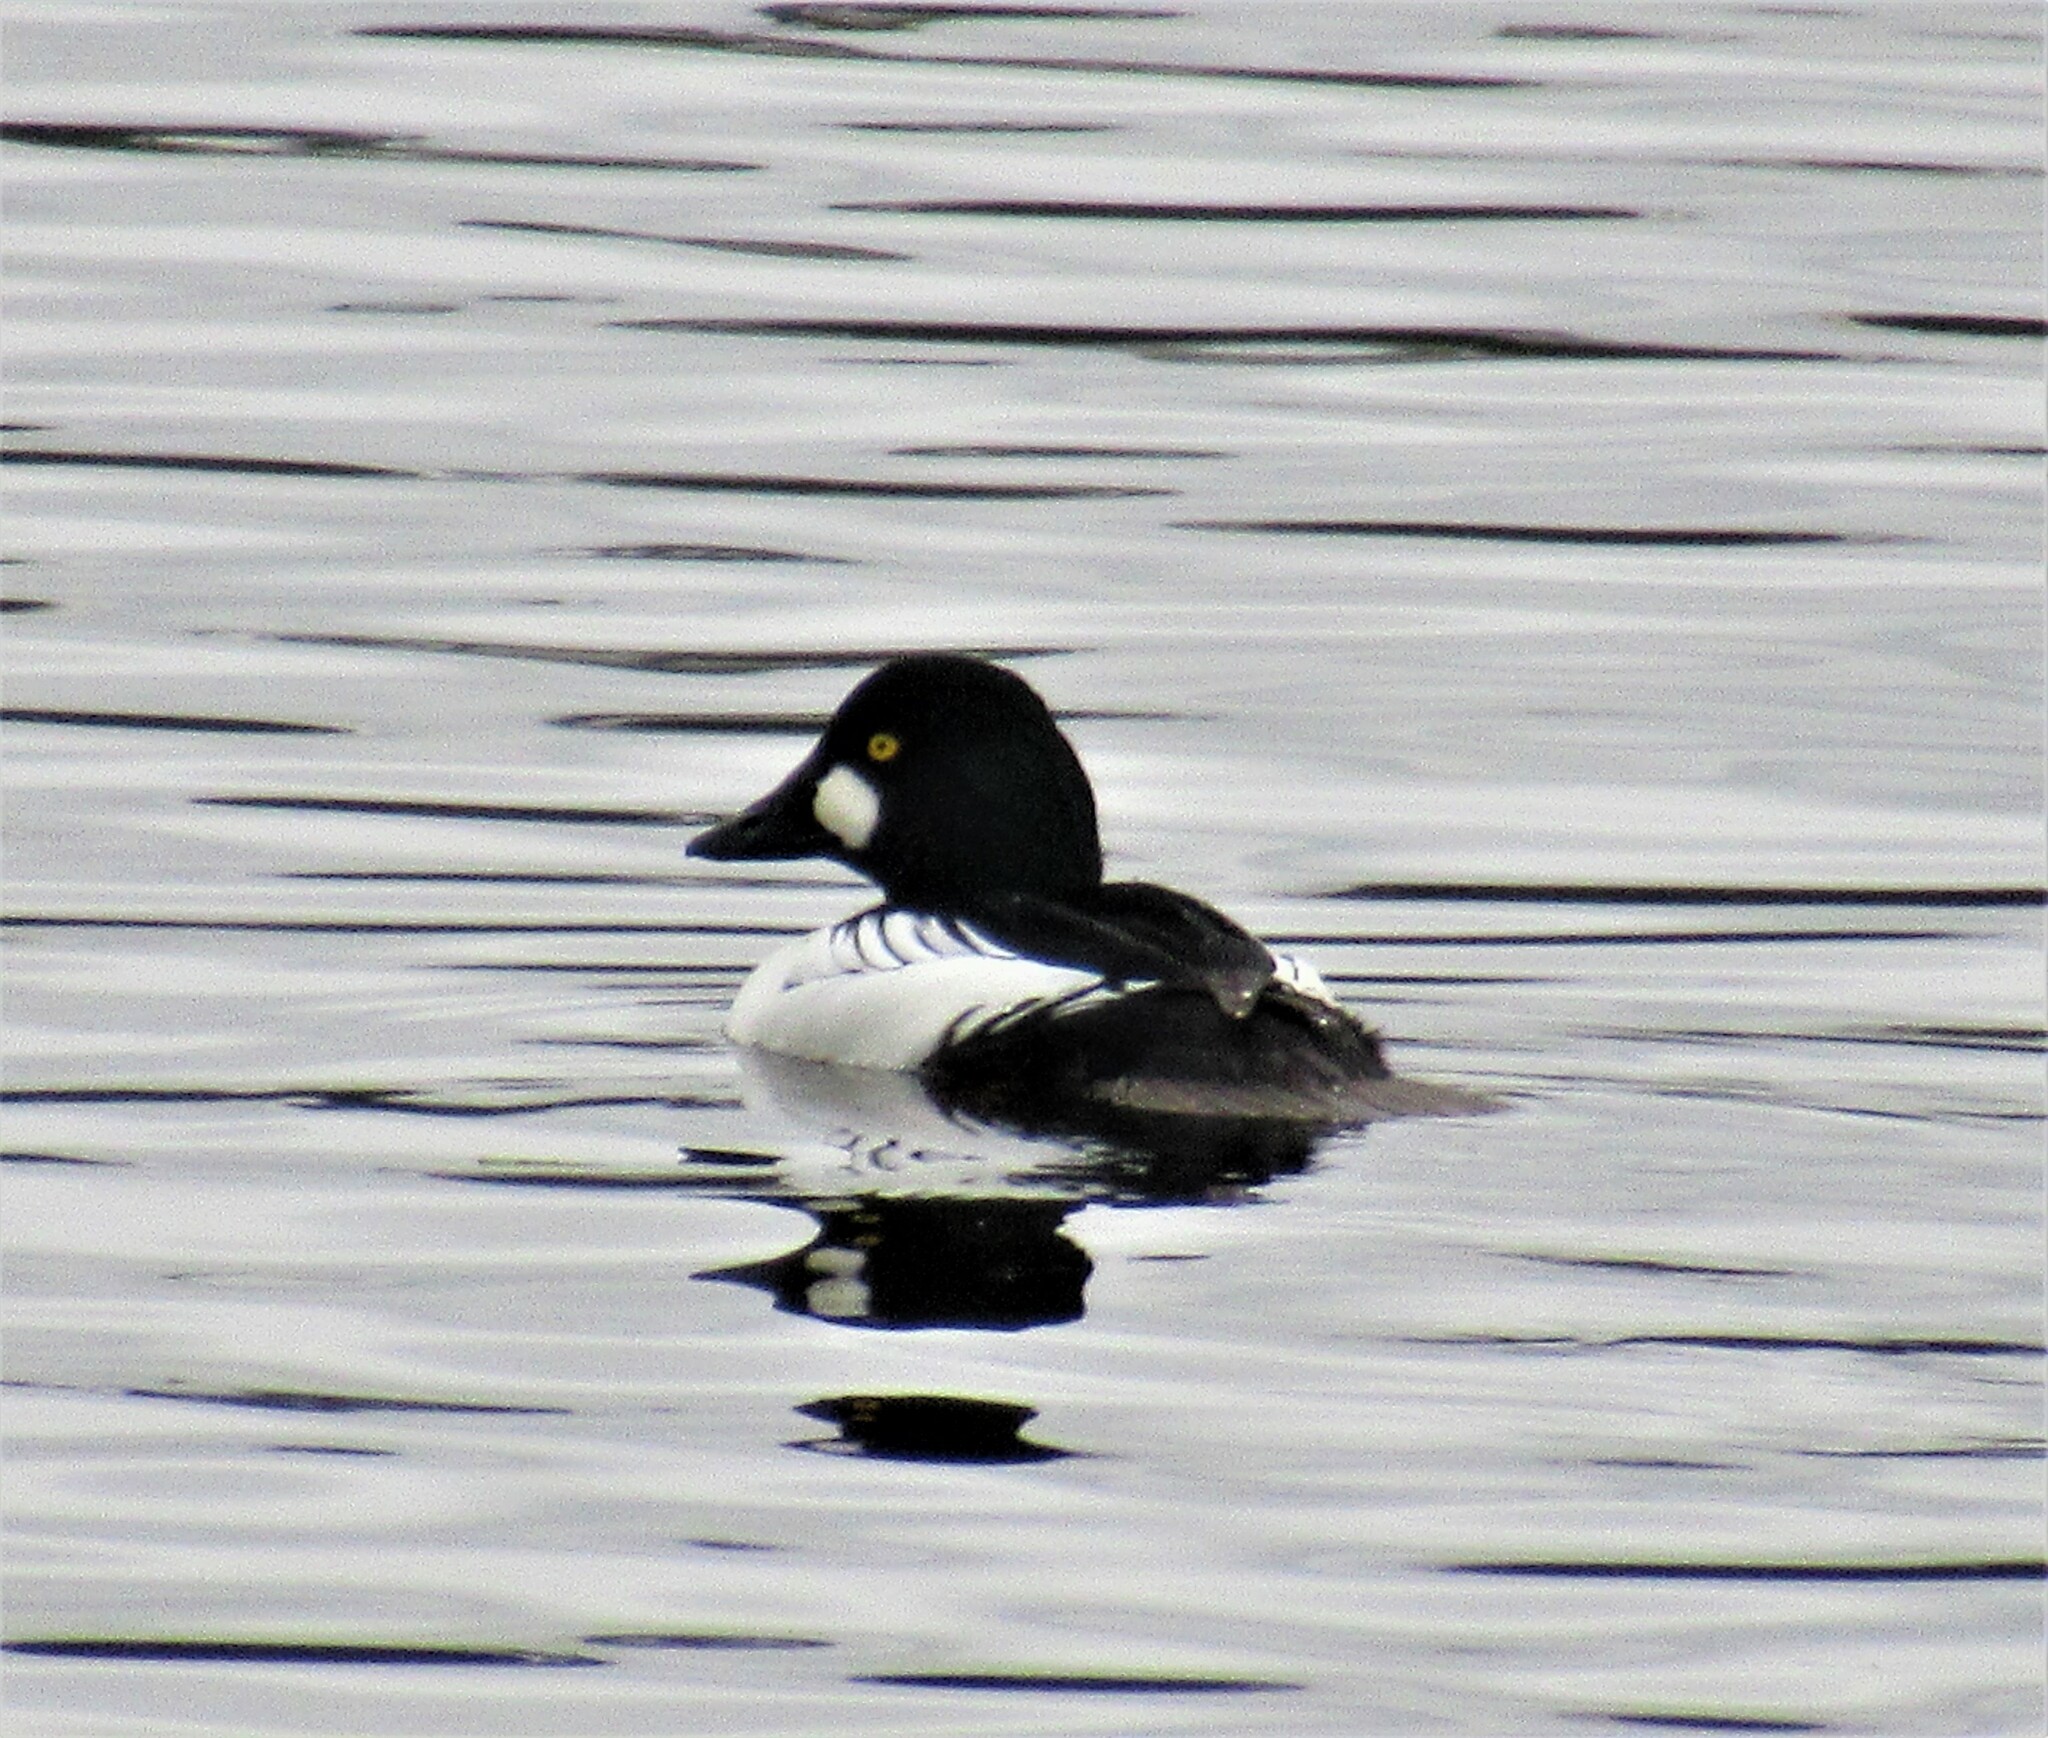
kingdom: Animalia
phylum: Chordata
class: Aves
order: Anseriformes
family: Anatidae
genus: Bucephala
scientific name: Bucephala clangula
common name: Common goldeneye
